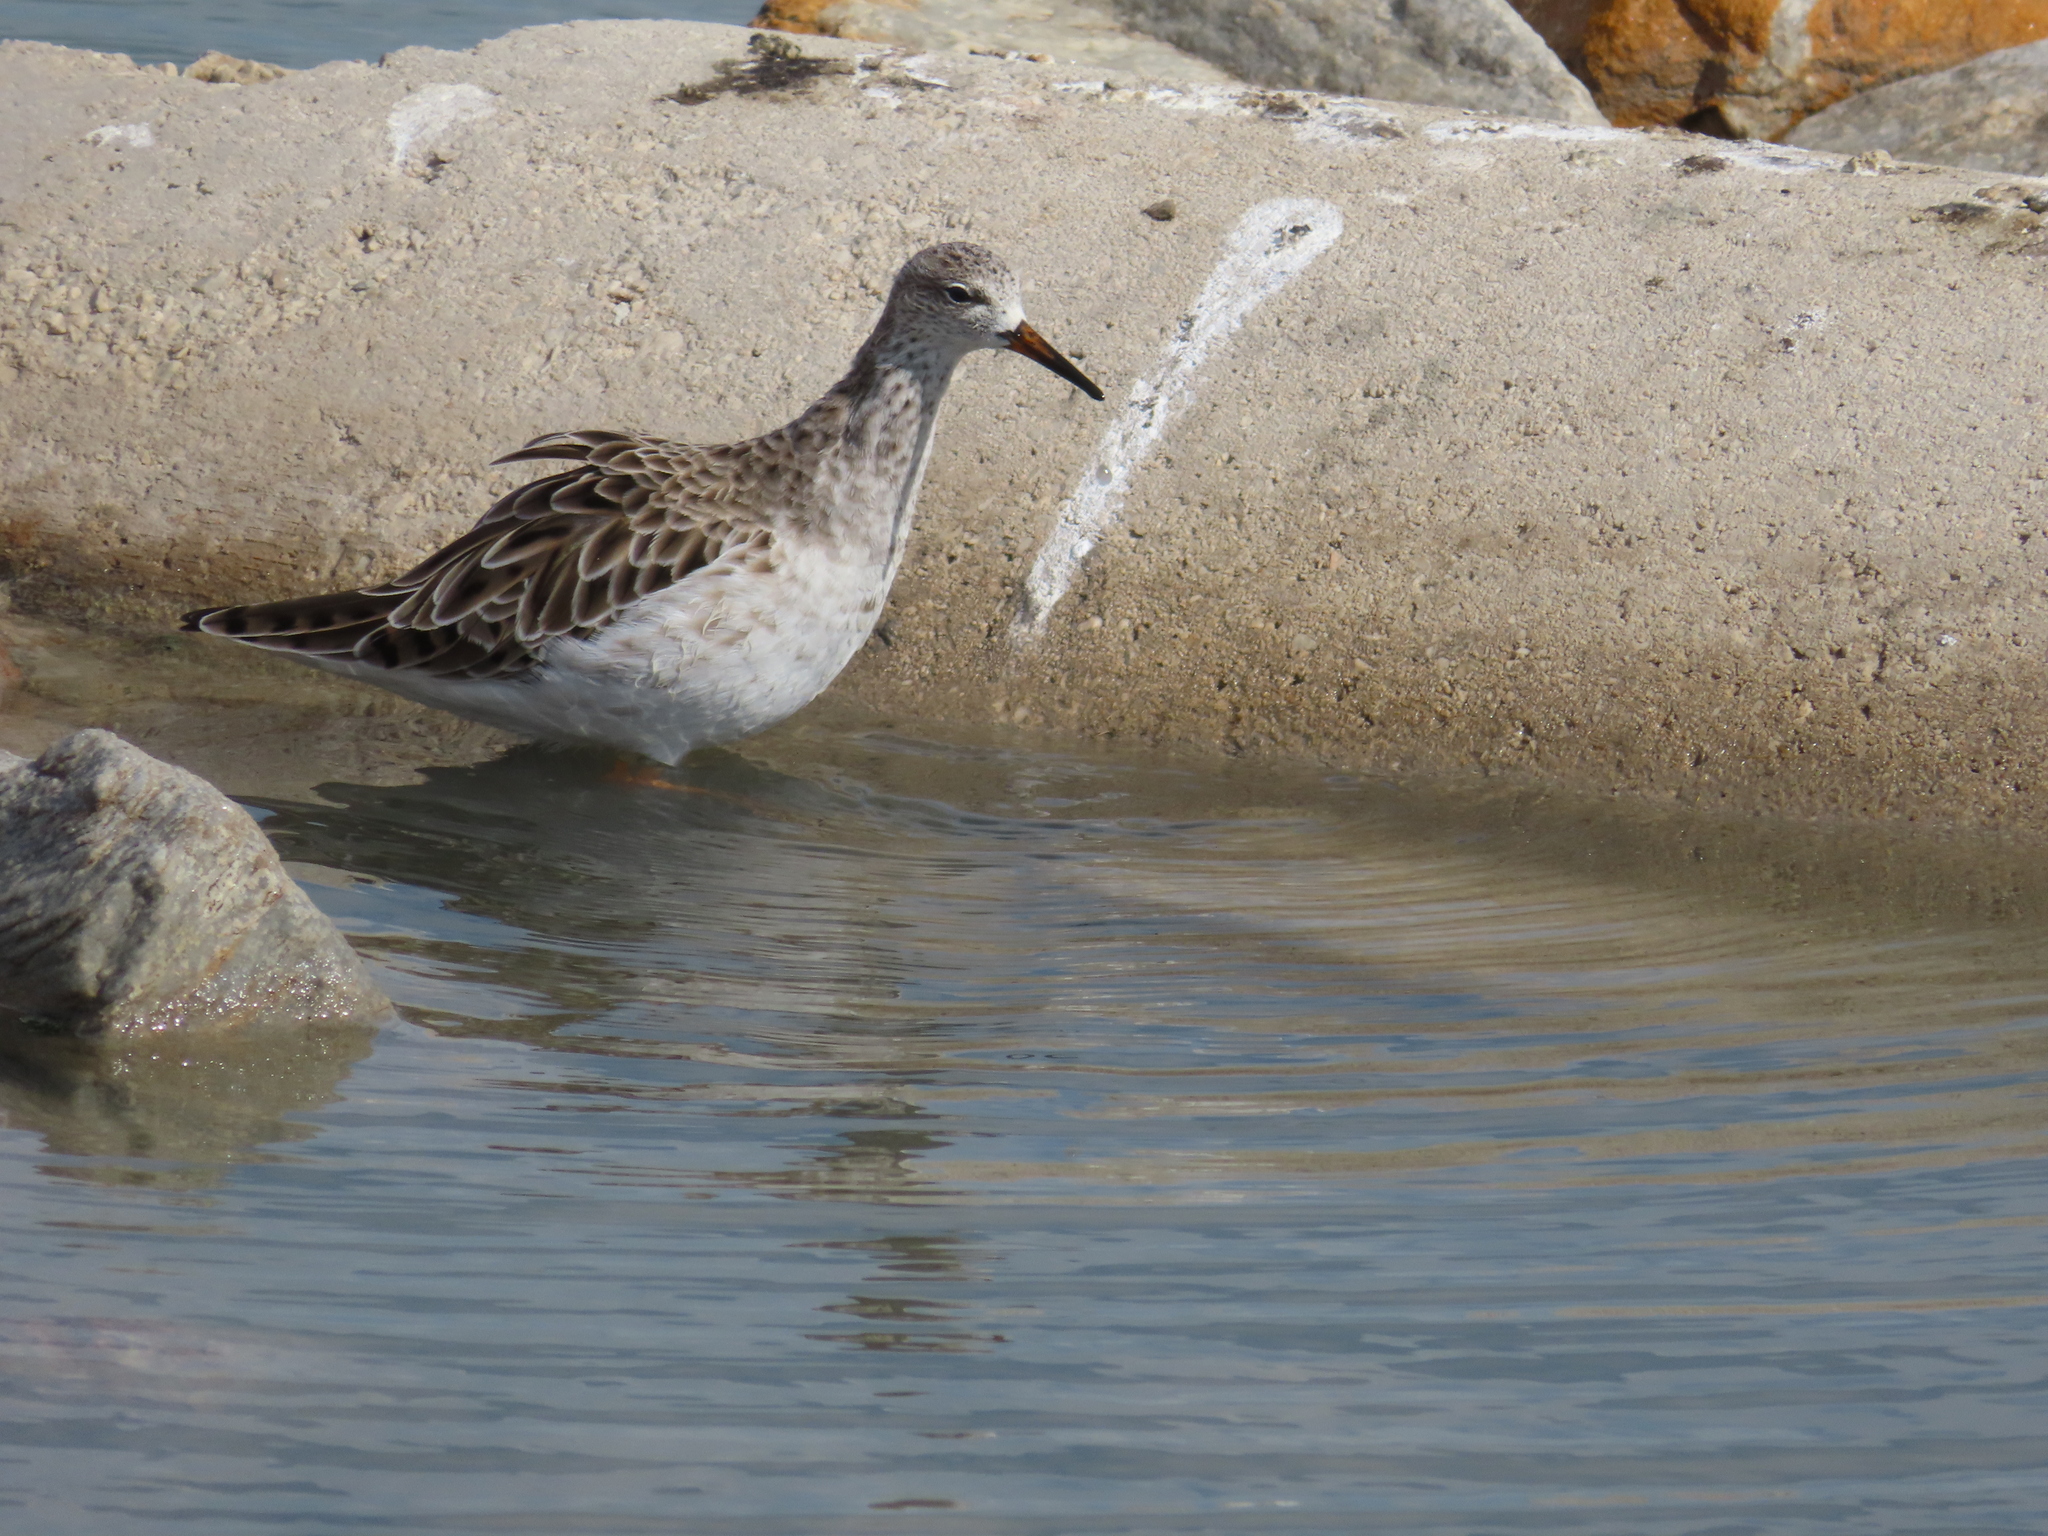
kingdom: Animalia
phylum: Chordata
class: Aves
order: Charadriiformes
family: Scolopacidae
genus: Calidris
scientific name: Calidris pugnax
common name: Ruff
